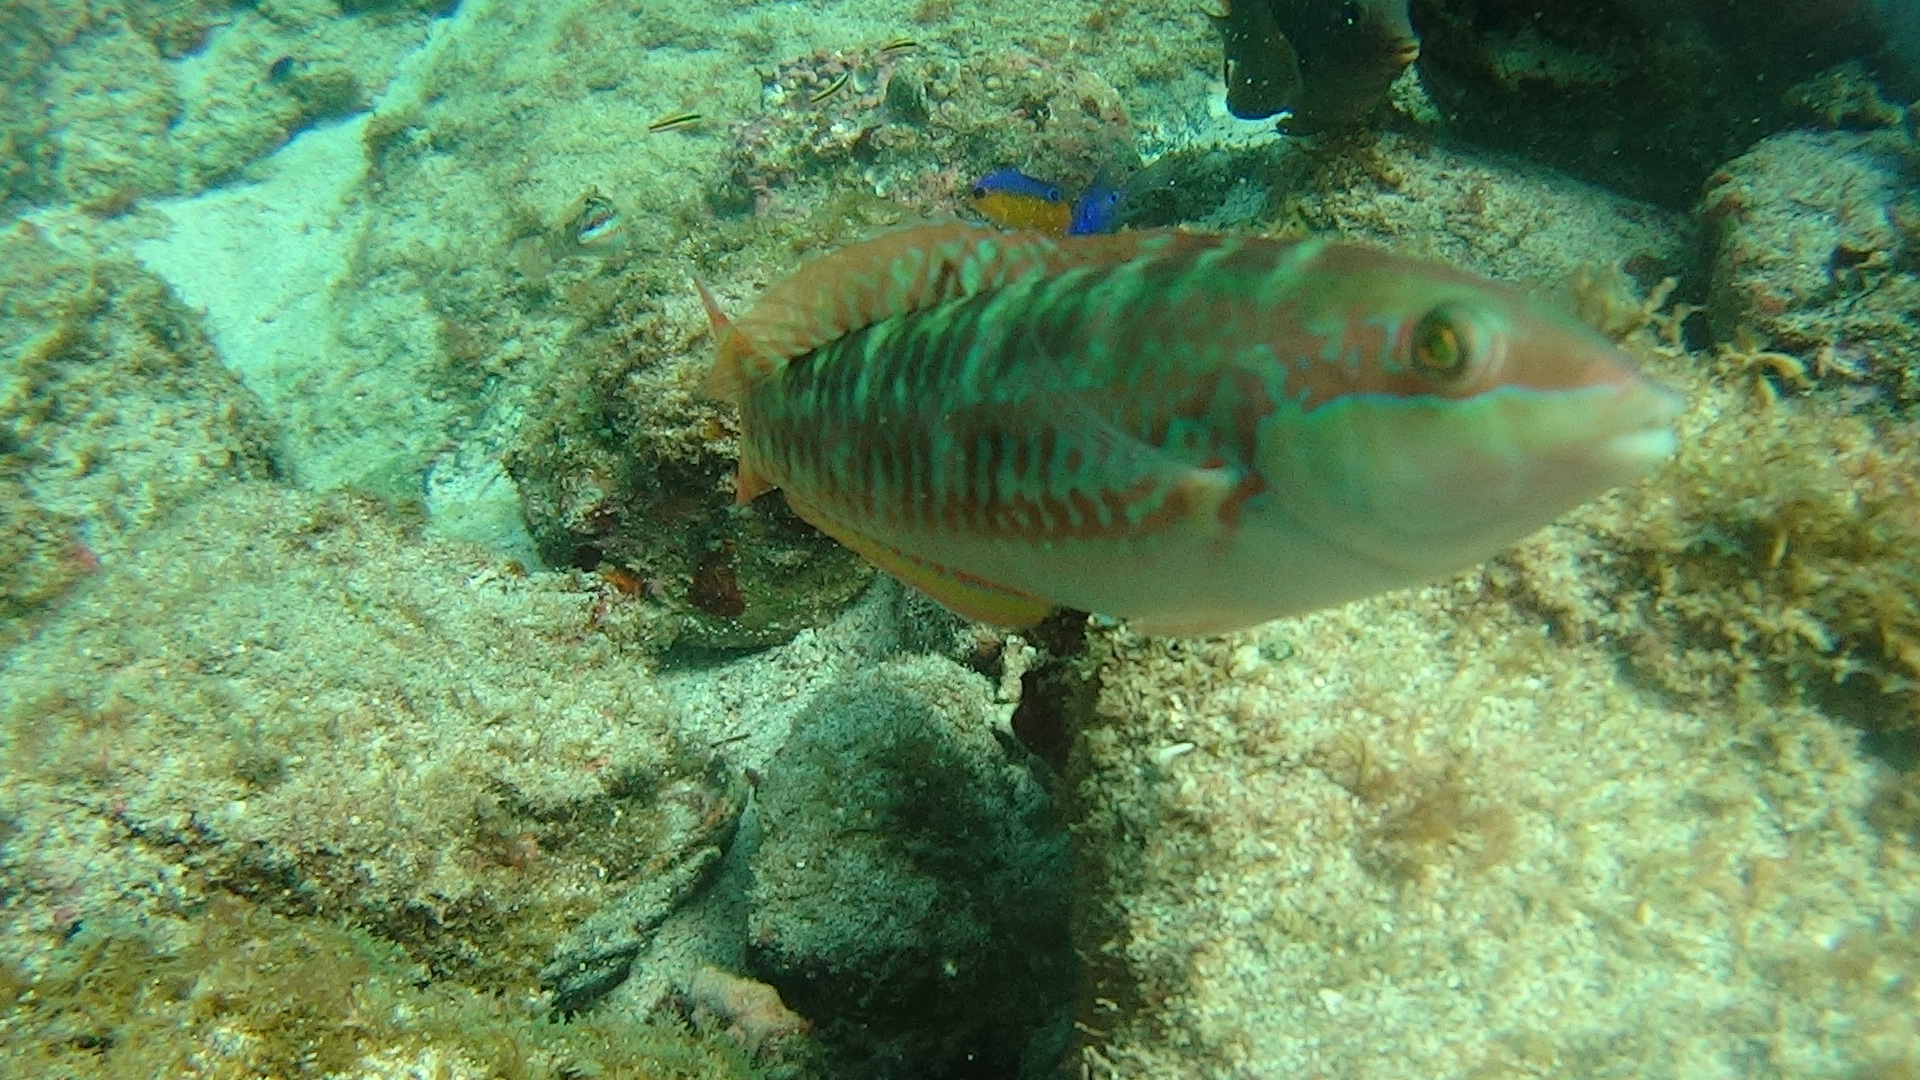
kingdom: Animalia
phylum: Chordata
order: Perciformes
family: Labridae
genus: Halichoeres
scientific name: Halichoeres chierchiae
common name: Wounded wrasse
